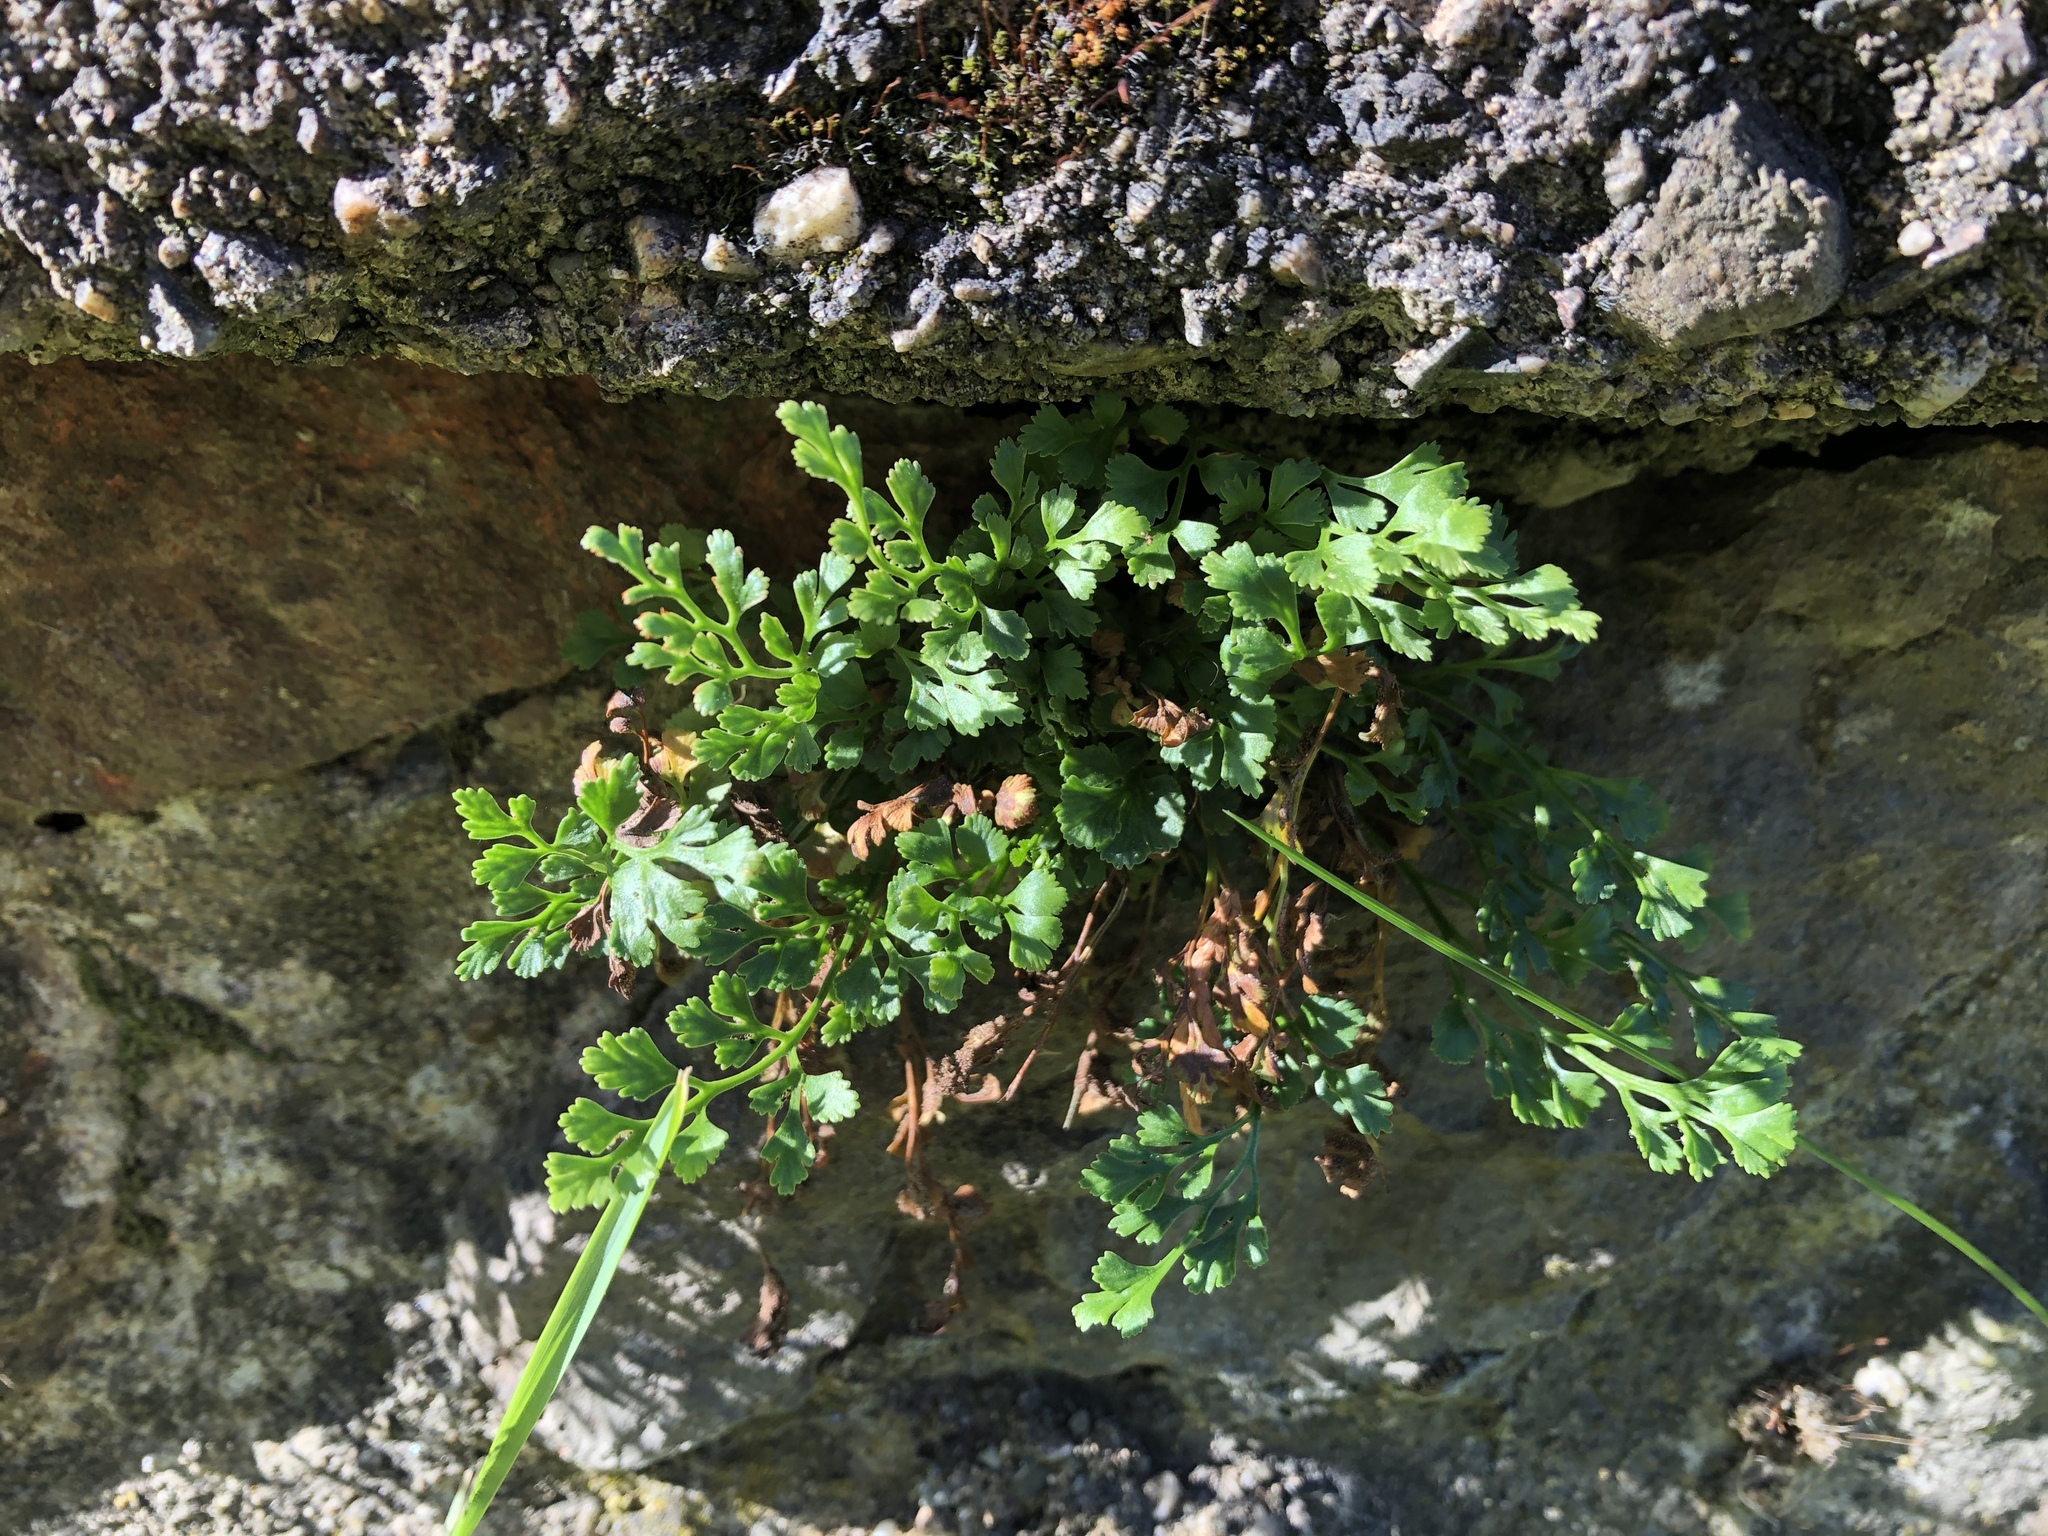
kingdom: Plantae
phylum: Tracheophyta
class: Polypodiopsida
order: Polypodiales
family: Aspleniaceae
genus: Asplenium
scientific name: Asplenium ruta-muraria
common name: Wall-rue
